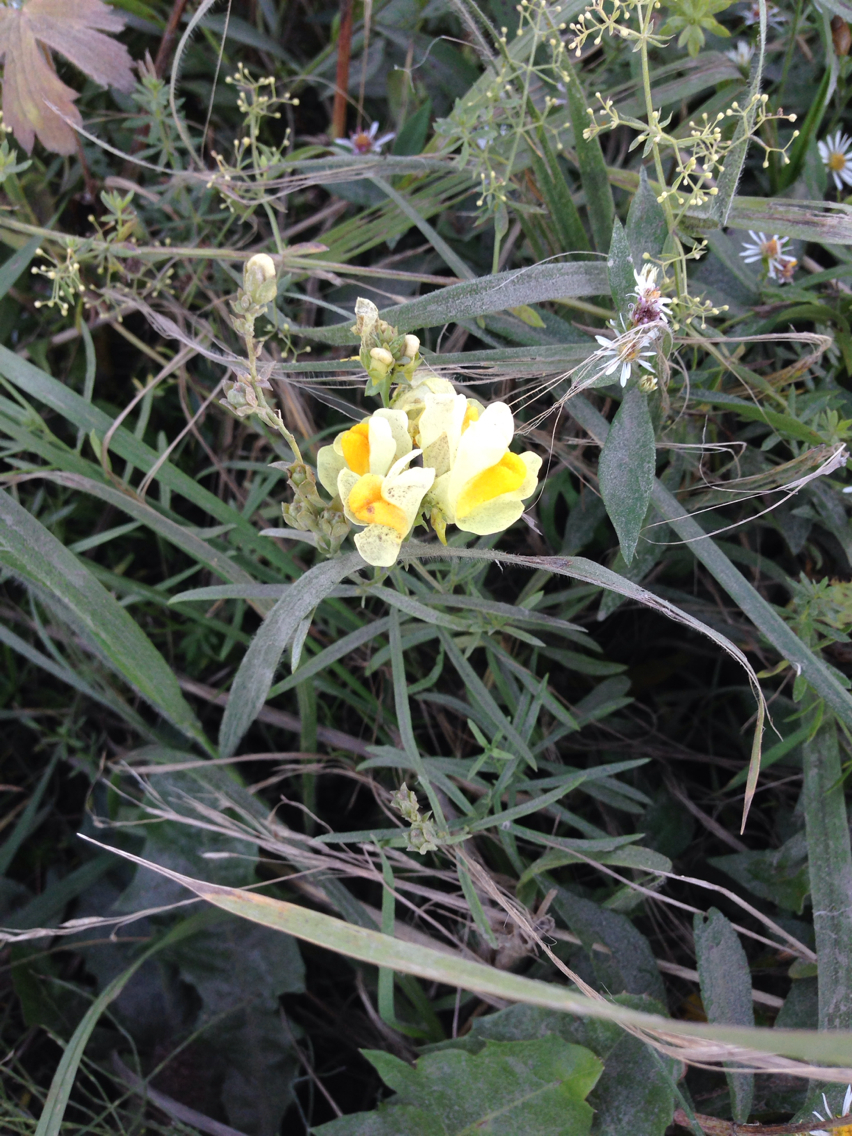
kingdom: Plantae
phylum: Tracheophyta
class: Magnoliopsida
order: Lamiales
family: Plantaginaceae
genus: Linaria
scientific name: Linaria vulgaris
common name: Butter and eggs
